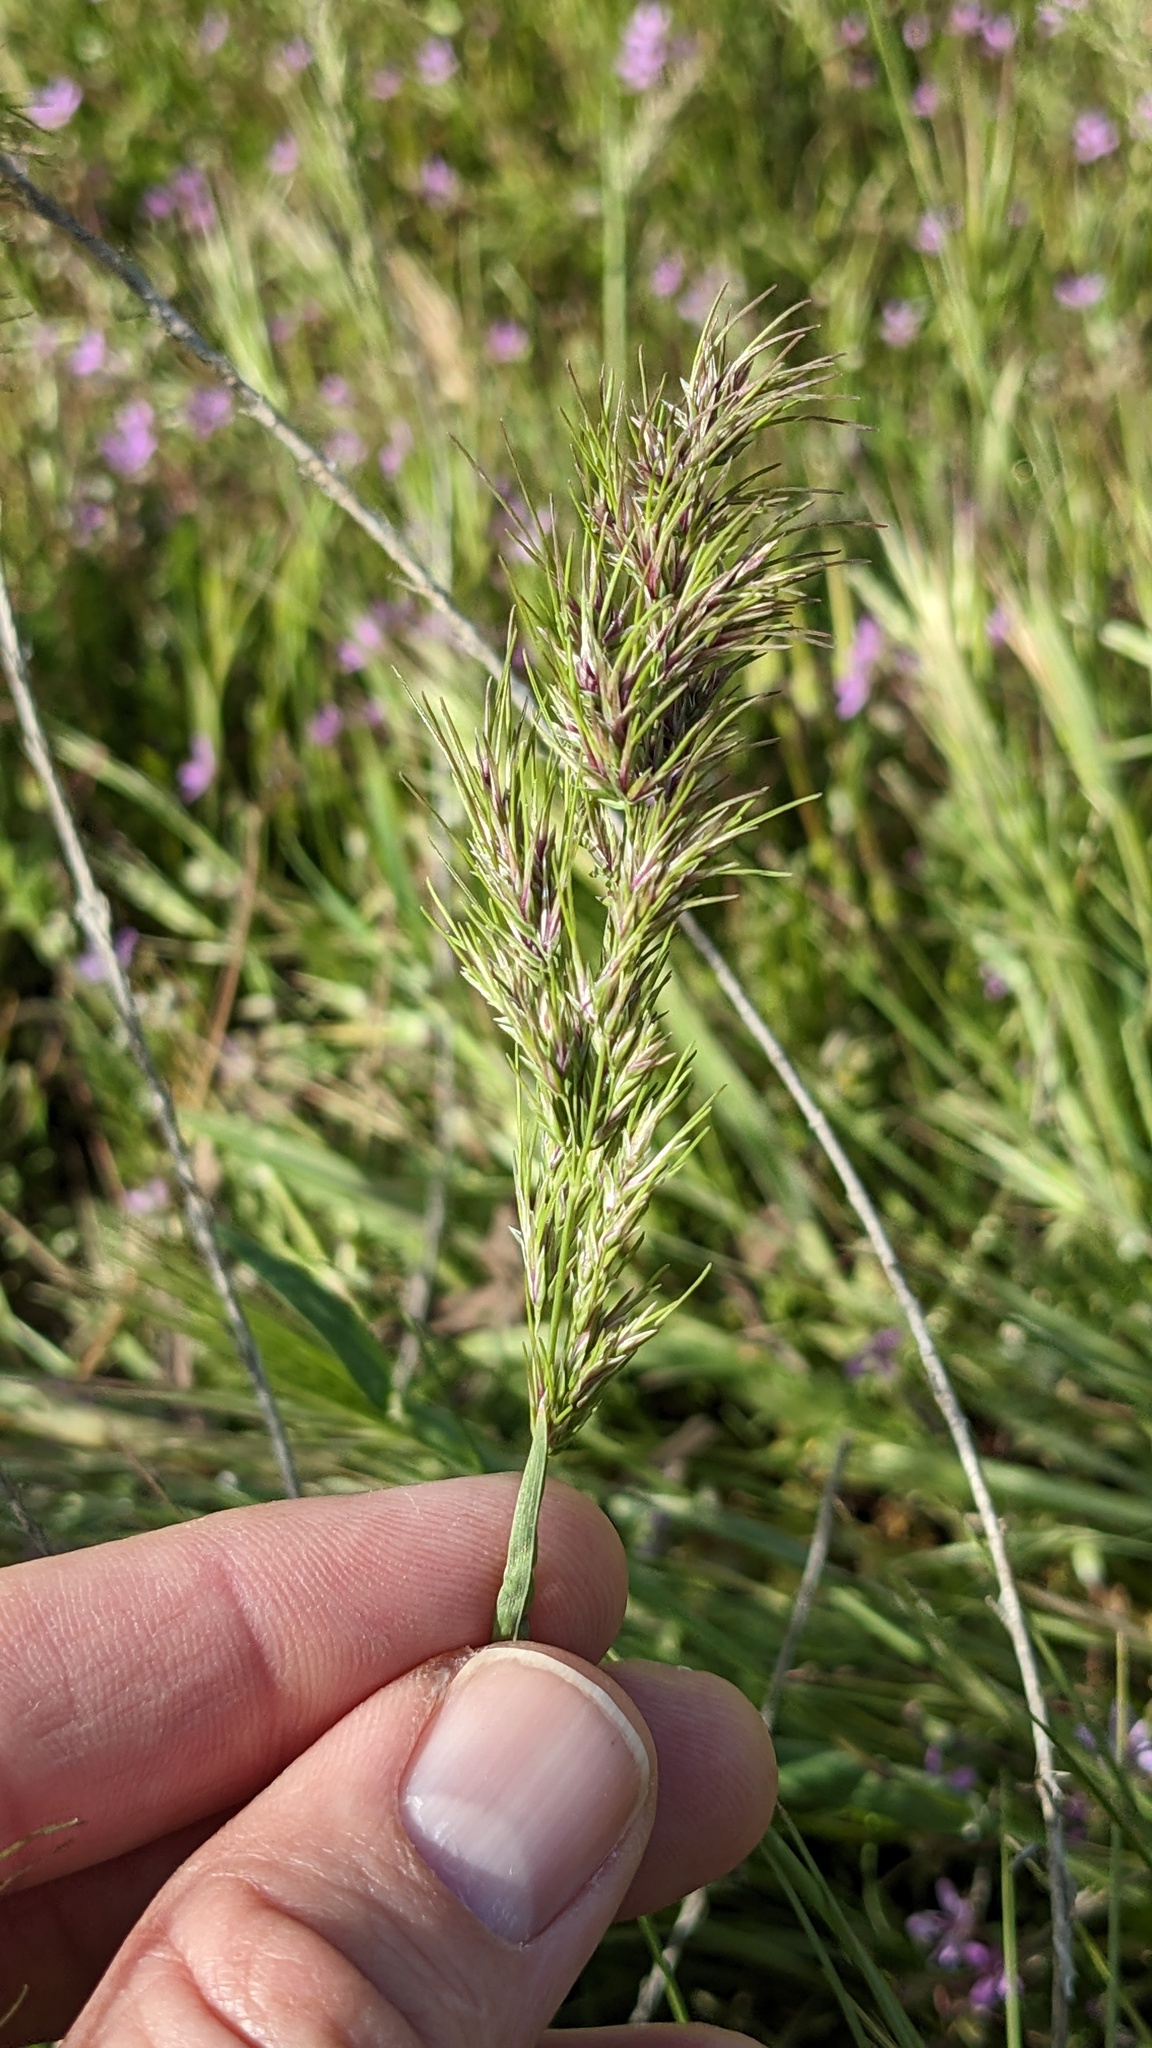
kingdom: Plantae
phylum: Tracheophyta
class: Liliopsida
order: Poales
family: Poaceae
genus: Poa
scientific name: Poa bulbosa
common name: Bulbous bluegrass
